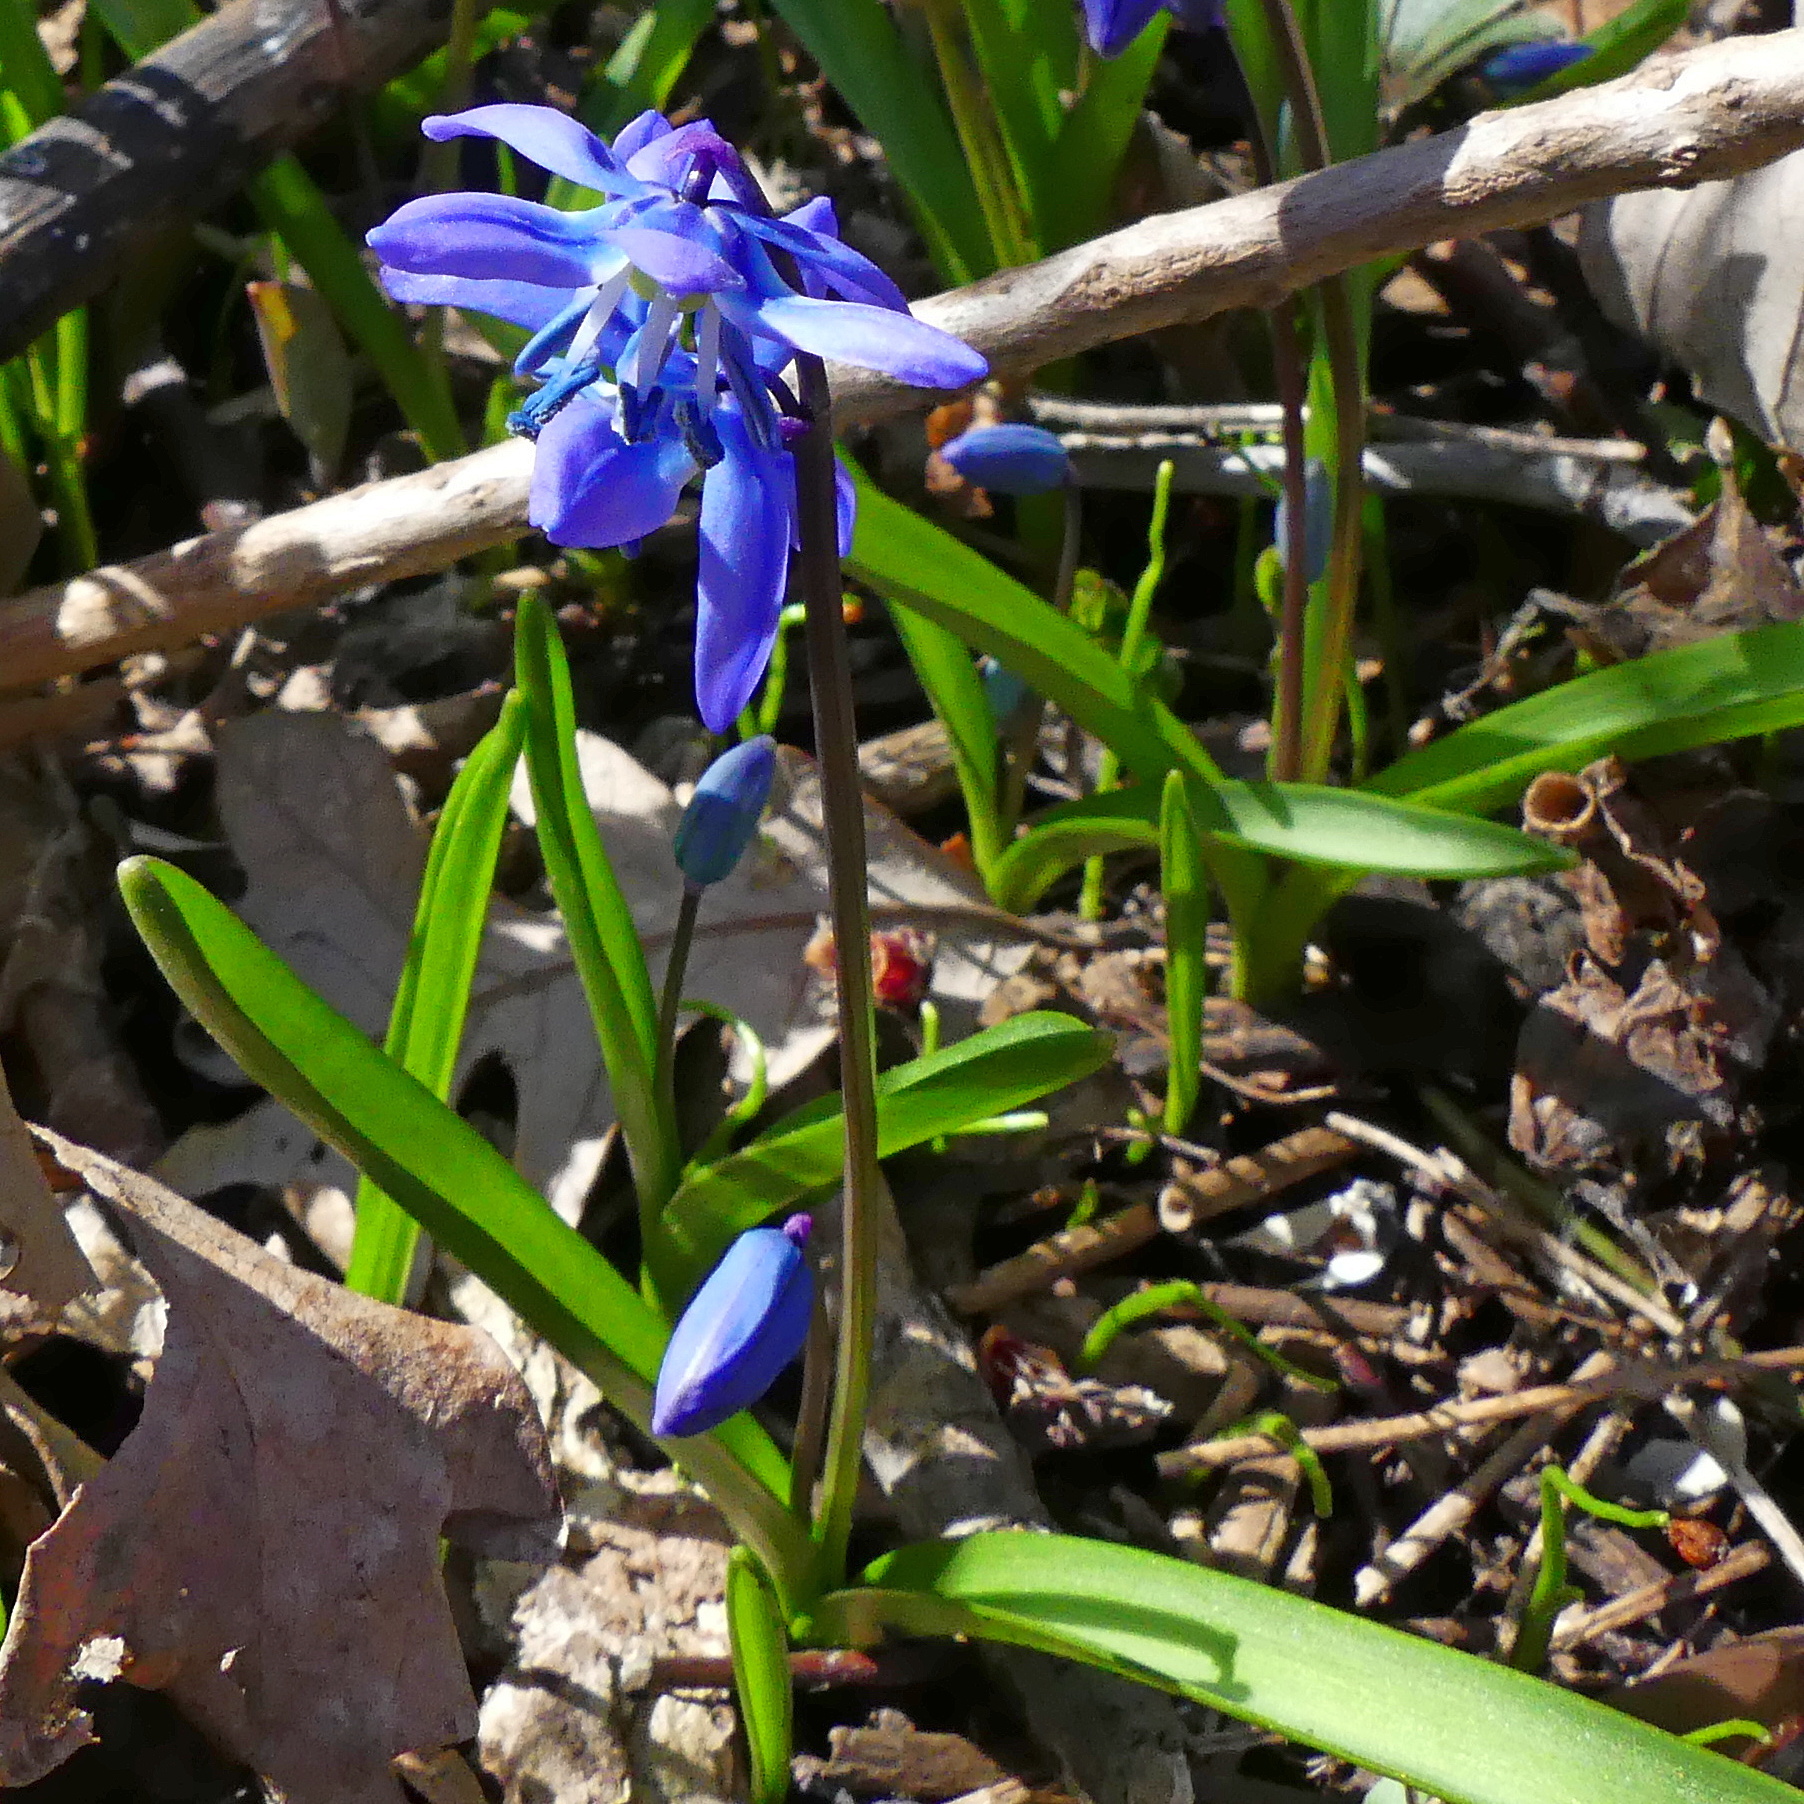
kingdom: Plantae
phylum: Tracheophyta
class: Liliopsida
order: Asparagales
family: Asparagaceae
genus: Scilla
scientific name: Scilla siberica
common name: Siberian squill
